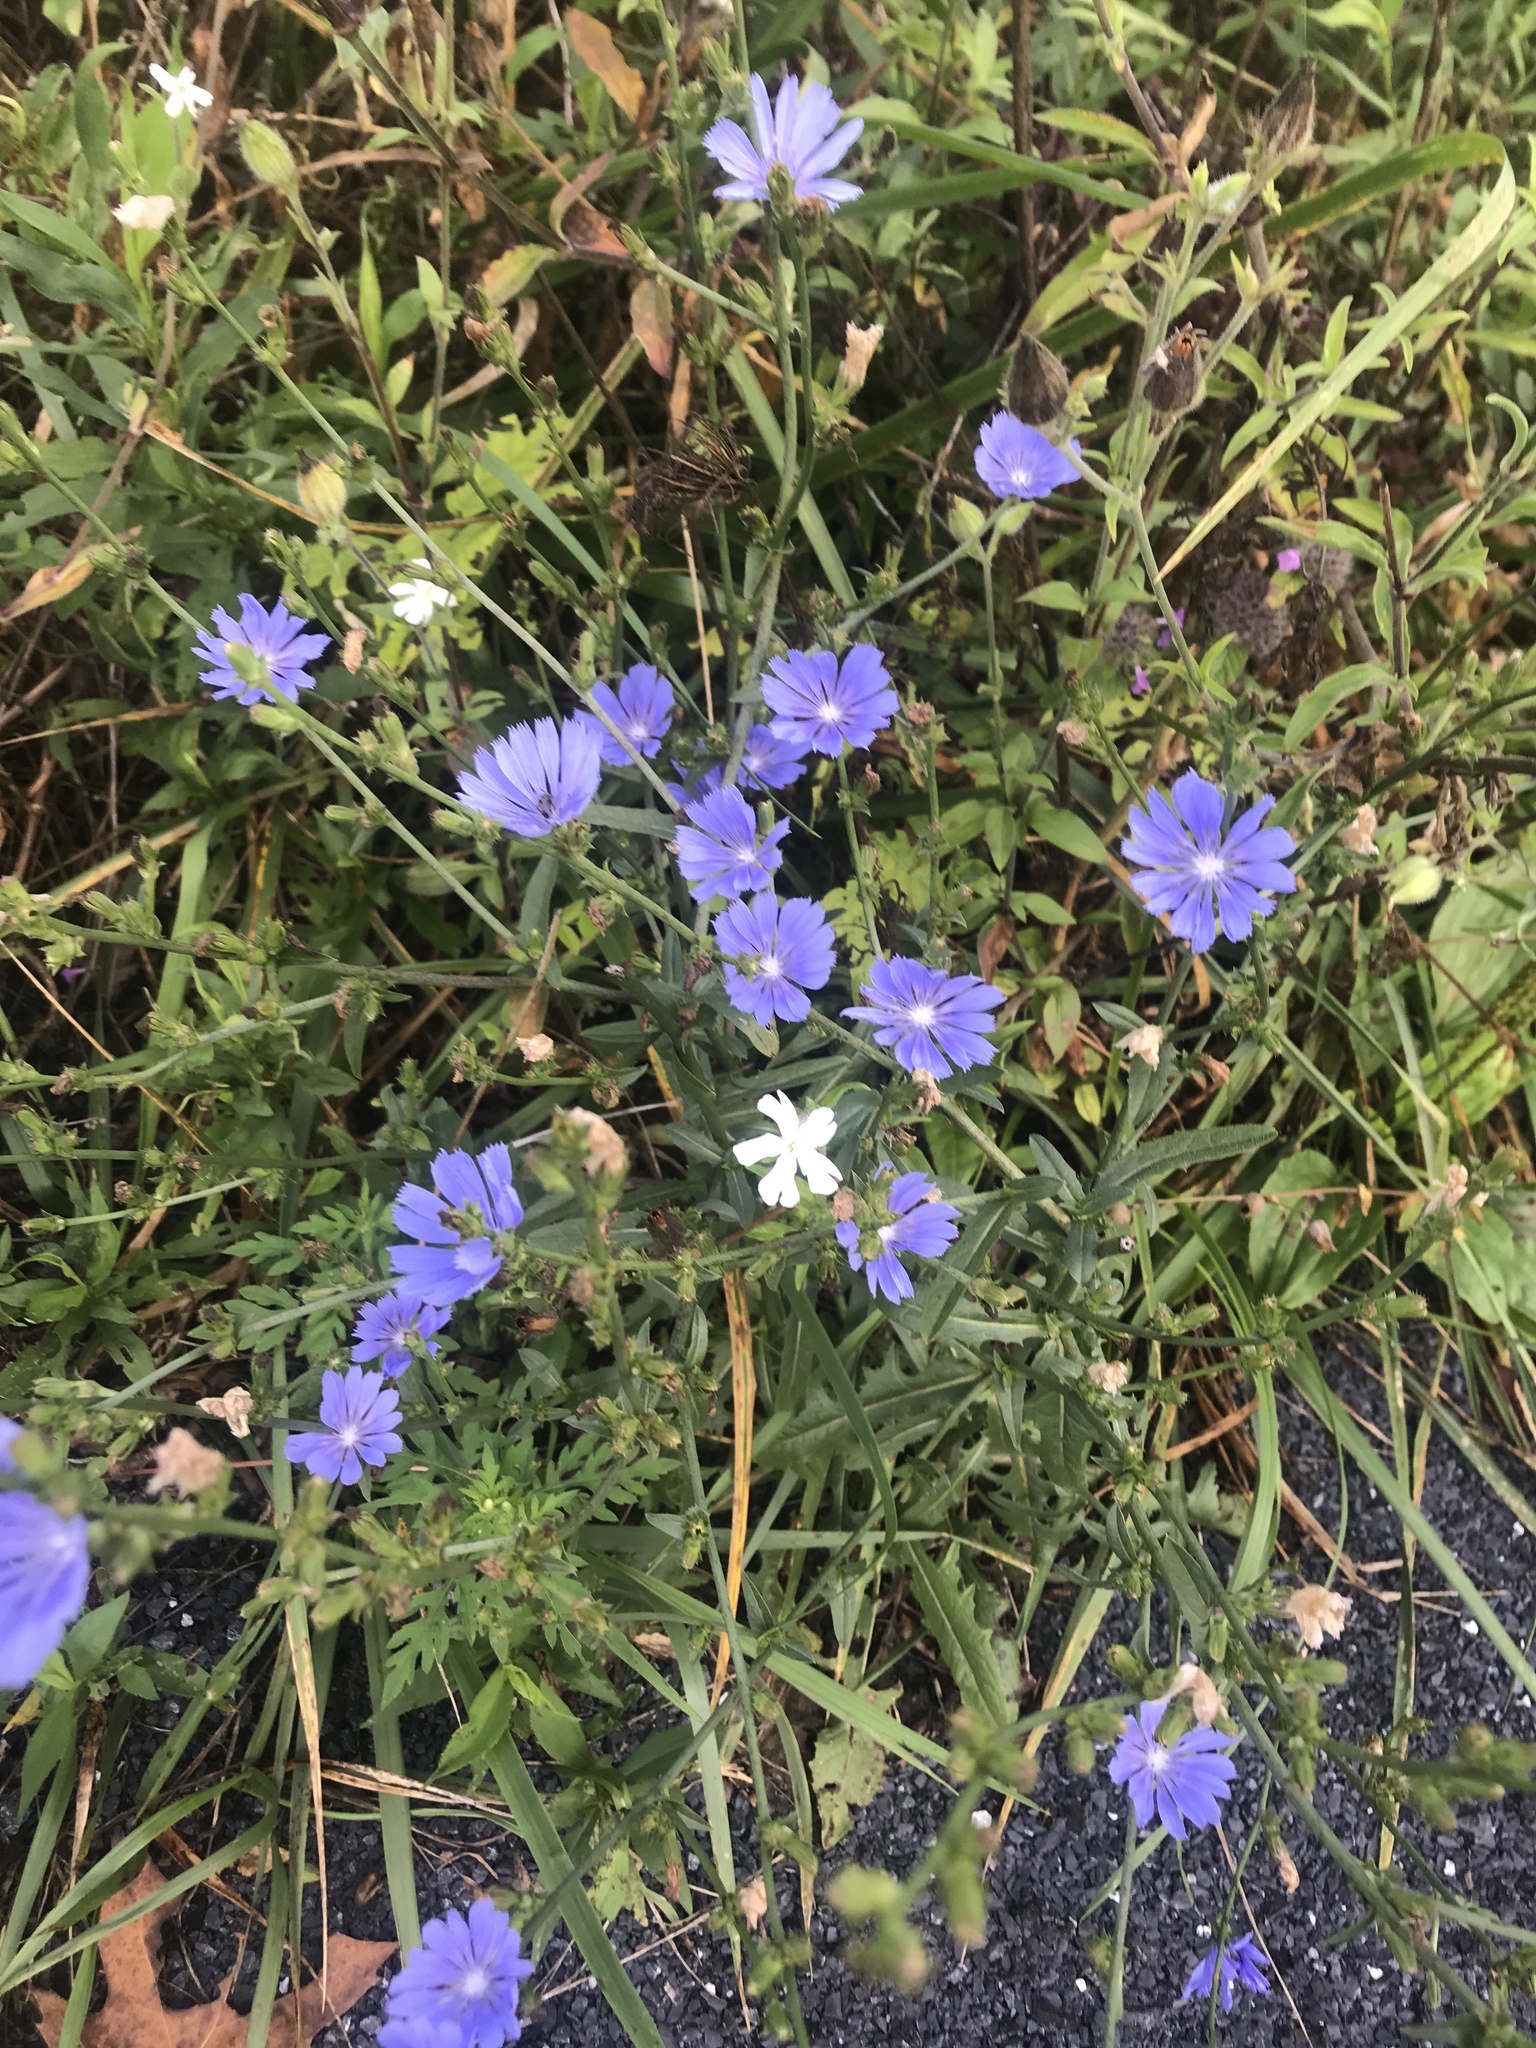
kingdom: Plantae
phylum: Tracheophyta
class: Magnoliopsida
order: Asterales
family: Asteraceae
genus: Cichorium
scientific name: Cichorium intybus
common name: Chicory
